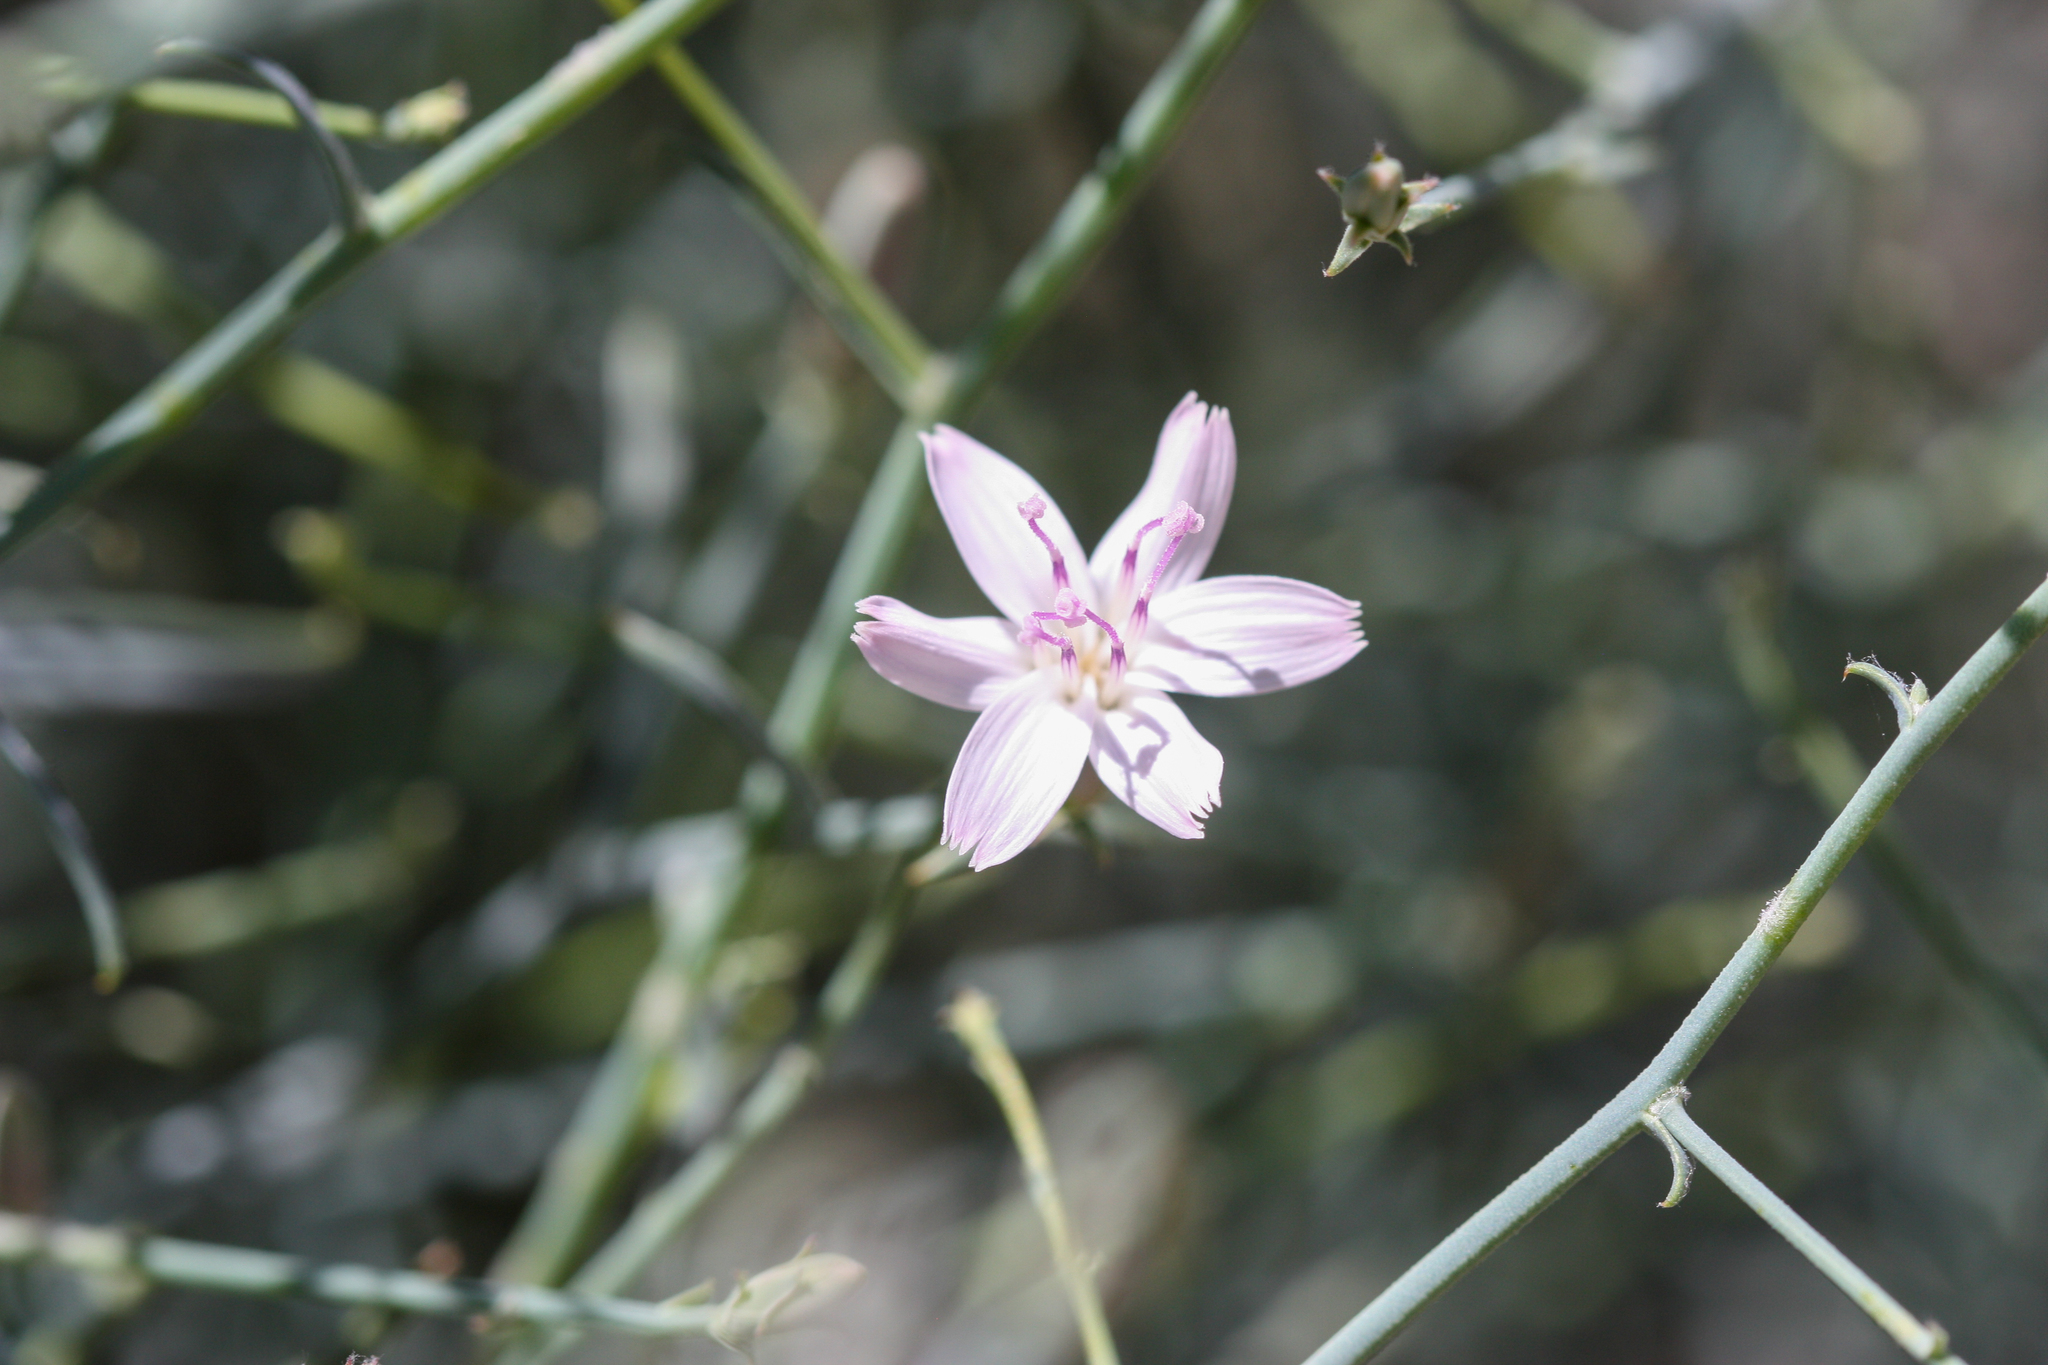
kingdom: Plantae
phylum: Tracheophyta
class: Magnoliopsida
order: Asterales
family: Asteraceae
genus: Stephanomeria
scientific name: Stephanomeria pauciflora
